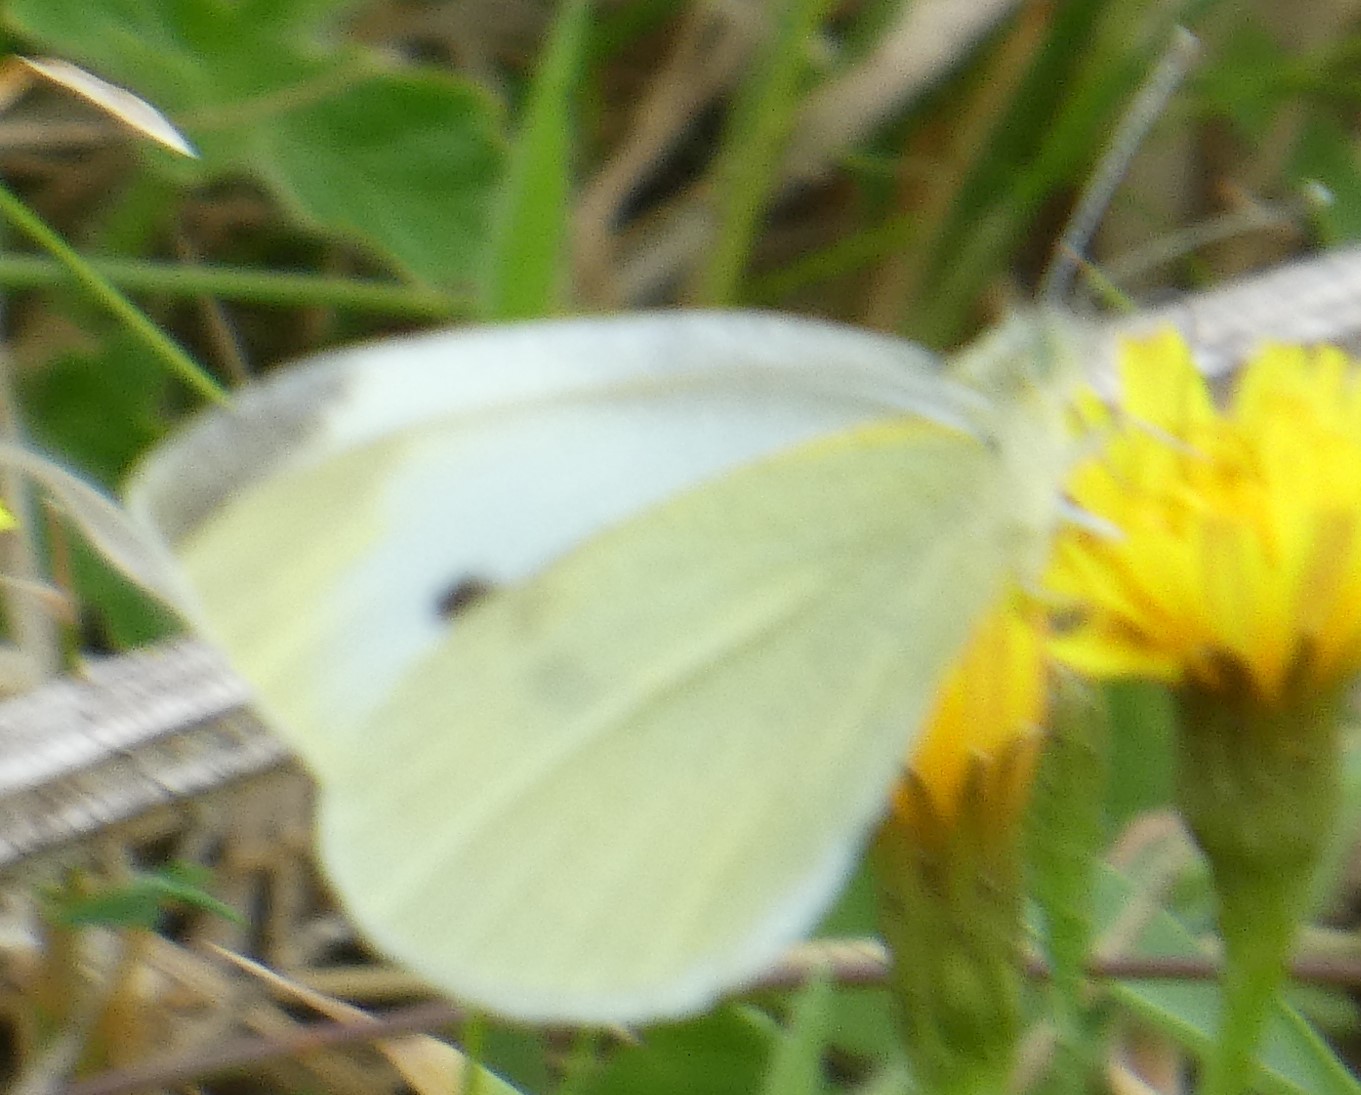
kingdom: Animalia
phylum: Arthropoda
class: Insecta
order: Lepidoptera
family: Pieridae
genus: Pieris
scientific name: Pieris rapae
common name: Small white
